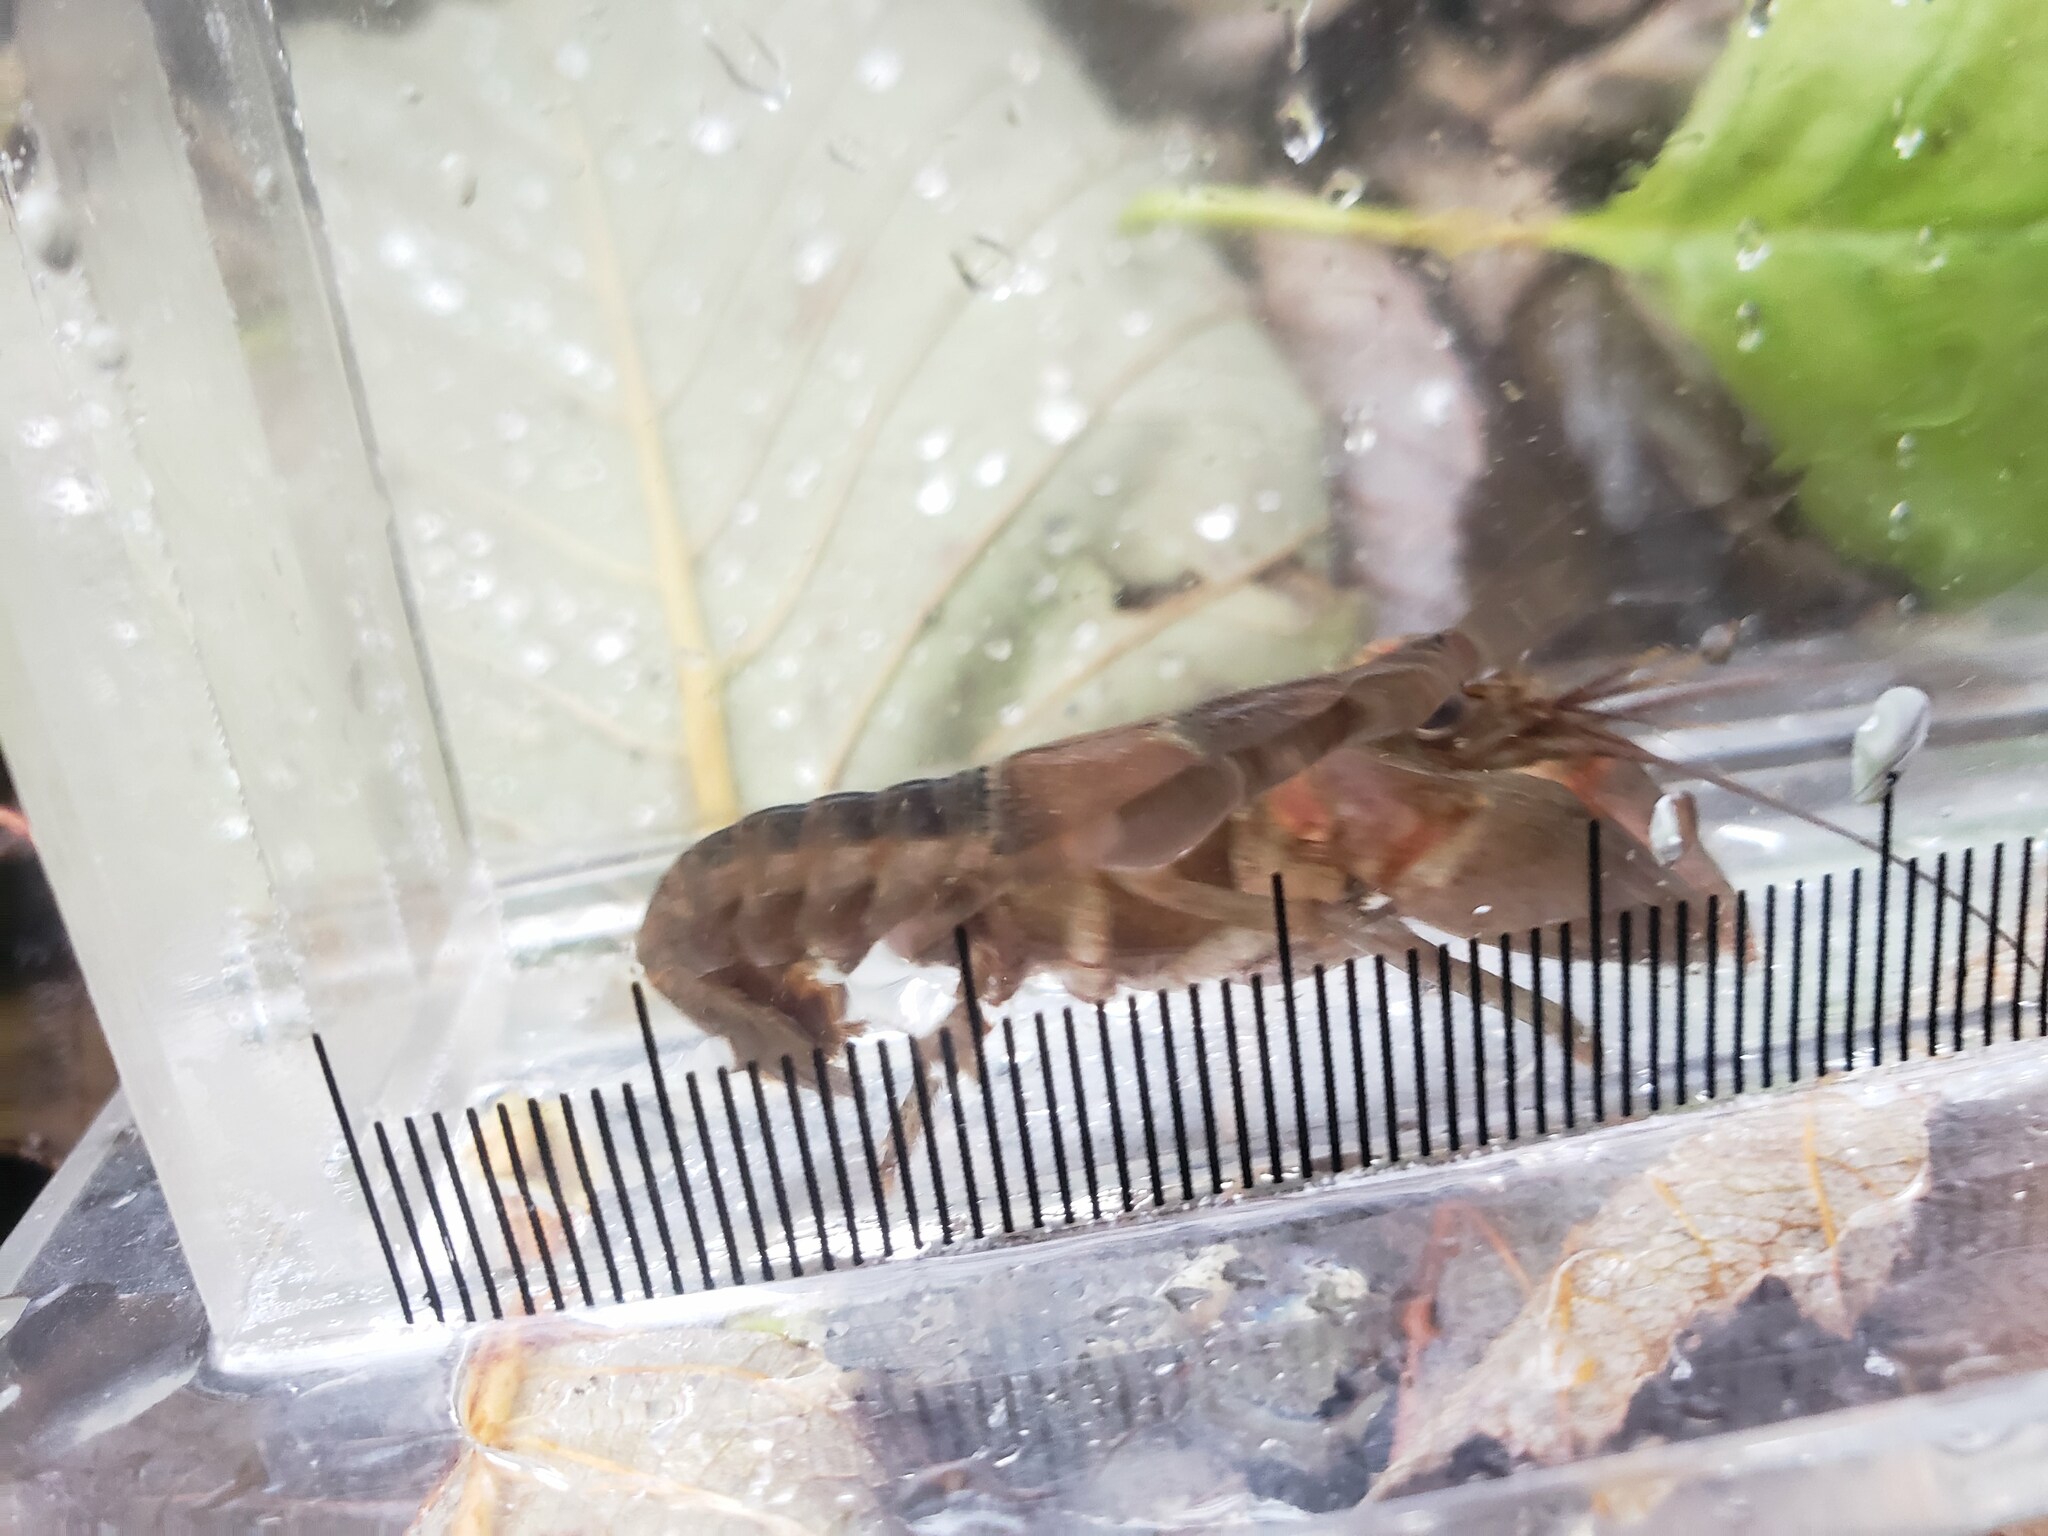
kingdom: Animalia
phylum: Arthropoda
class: Malacostraca
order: Decapoda
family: Cambaridae
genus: Faxonius
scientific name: Faxonius propinquus
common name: Northern clearwater crayfish
